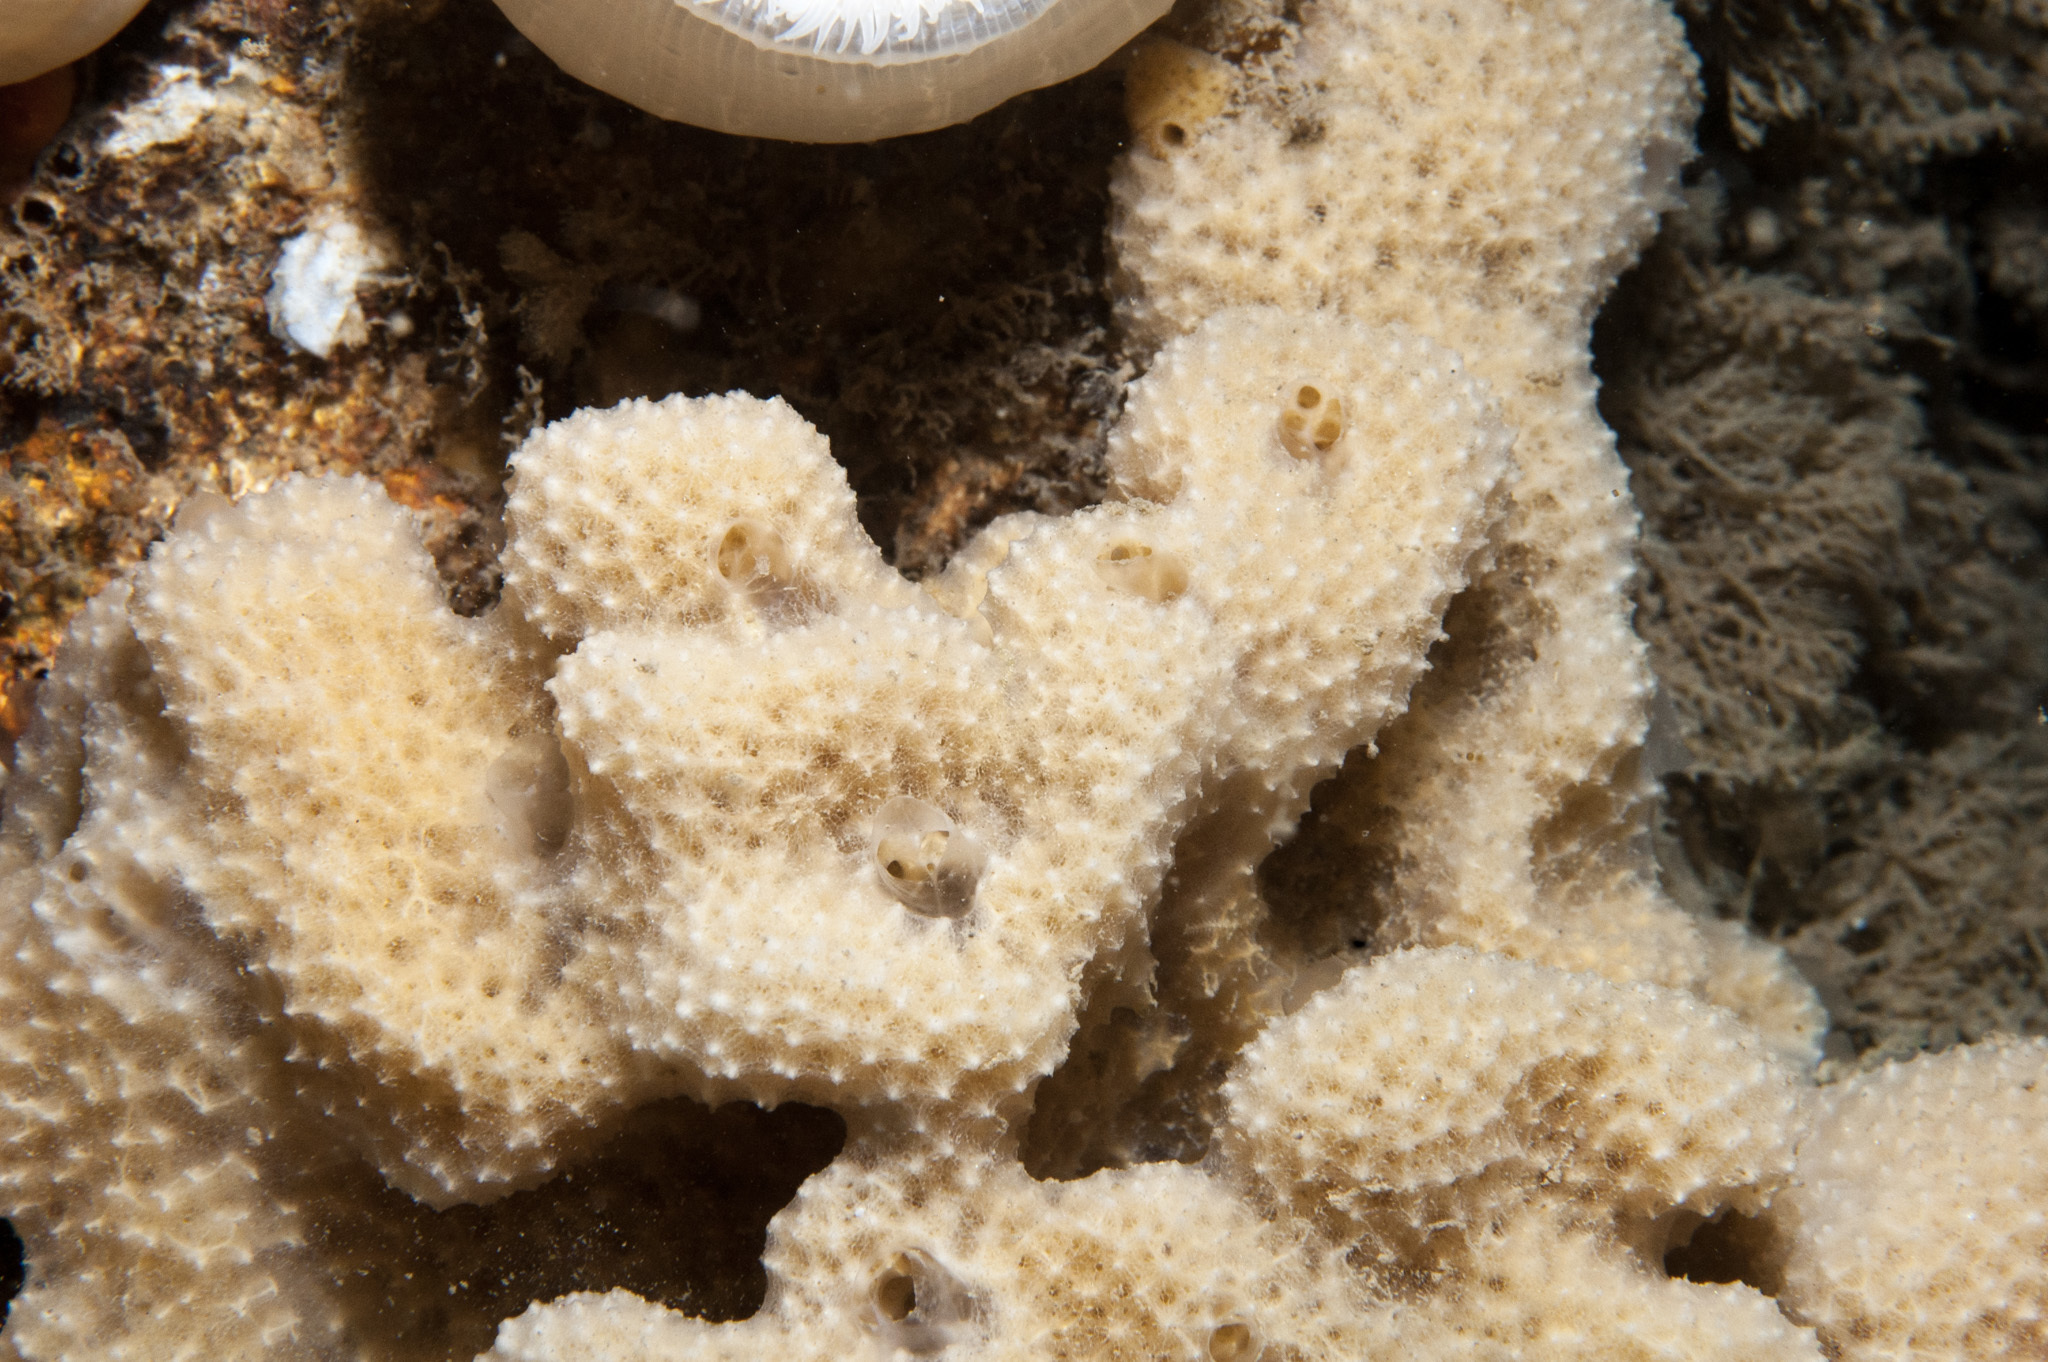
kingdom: Animalia
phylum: Porifera
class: Demospongiae
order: Dictyoceratida
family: Dysideidae
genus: Dysidea
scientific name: Dysidea fragilis
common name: Goosebump sponge
